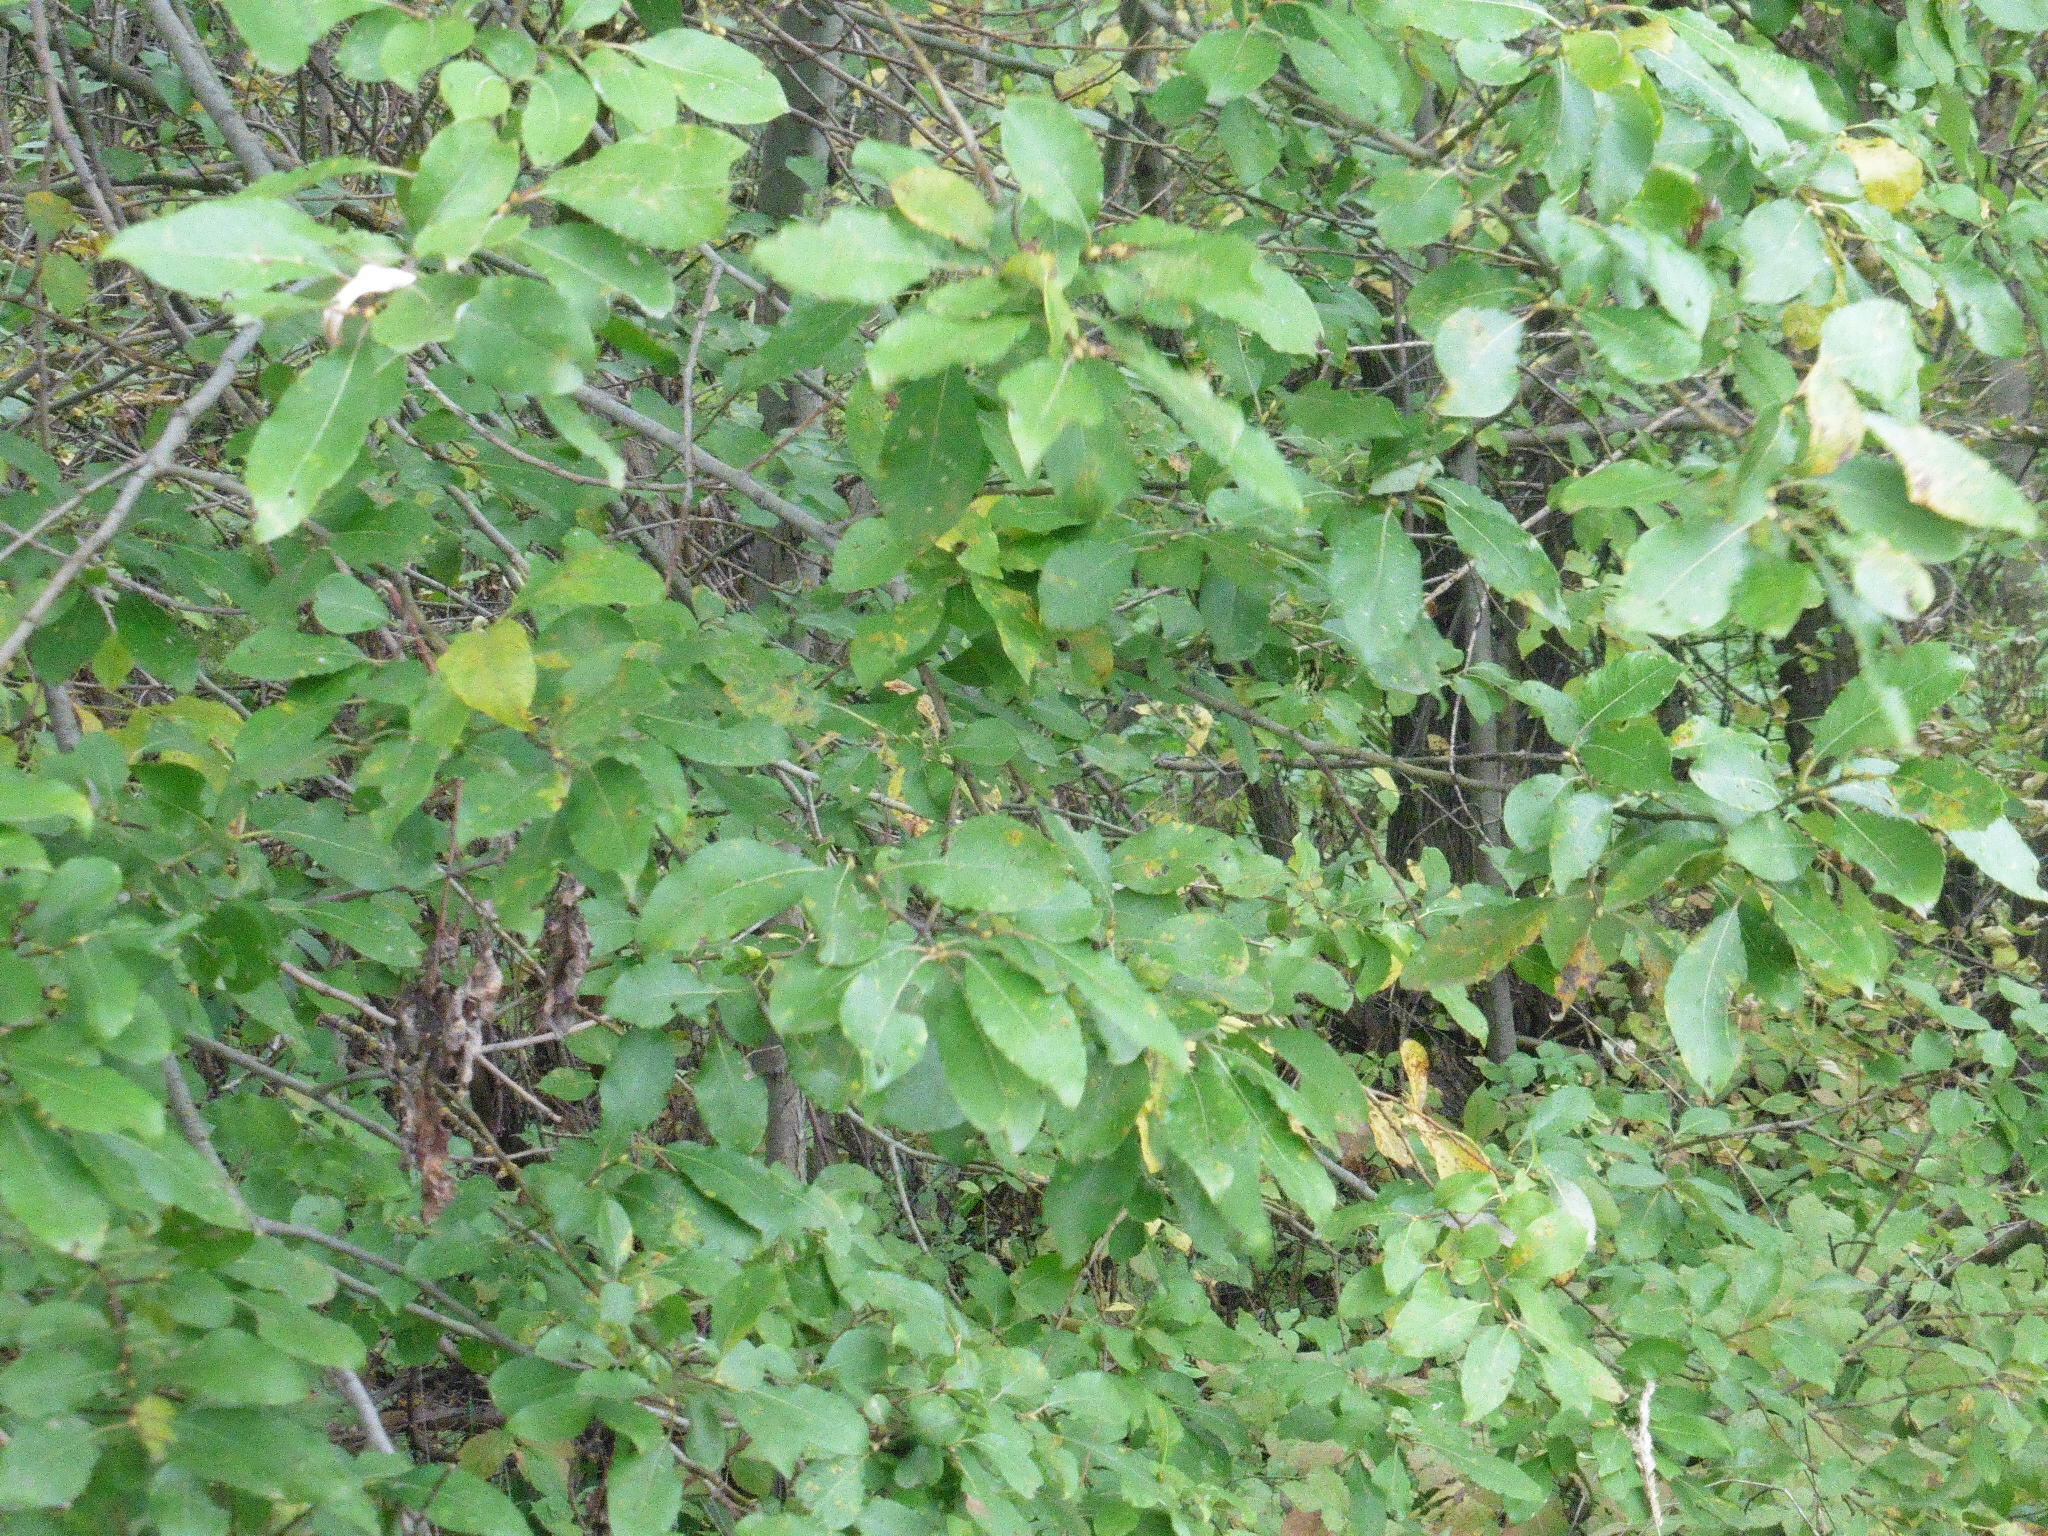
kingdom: Plantae
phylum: Tracheophyta
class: Magnoliopsida
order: Malpighiales
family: Salicaceae
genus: Salix
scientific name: Salix caprea
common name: Goat willow
